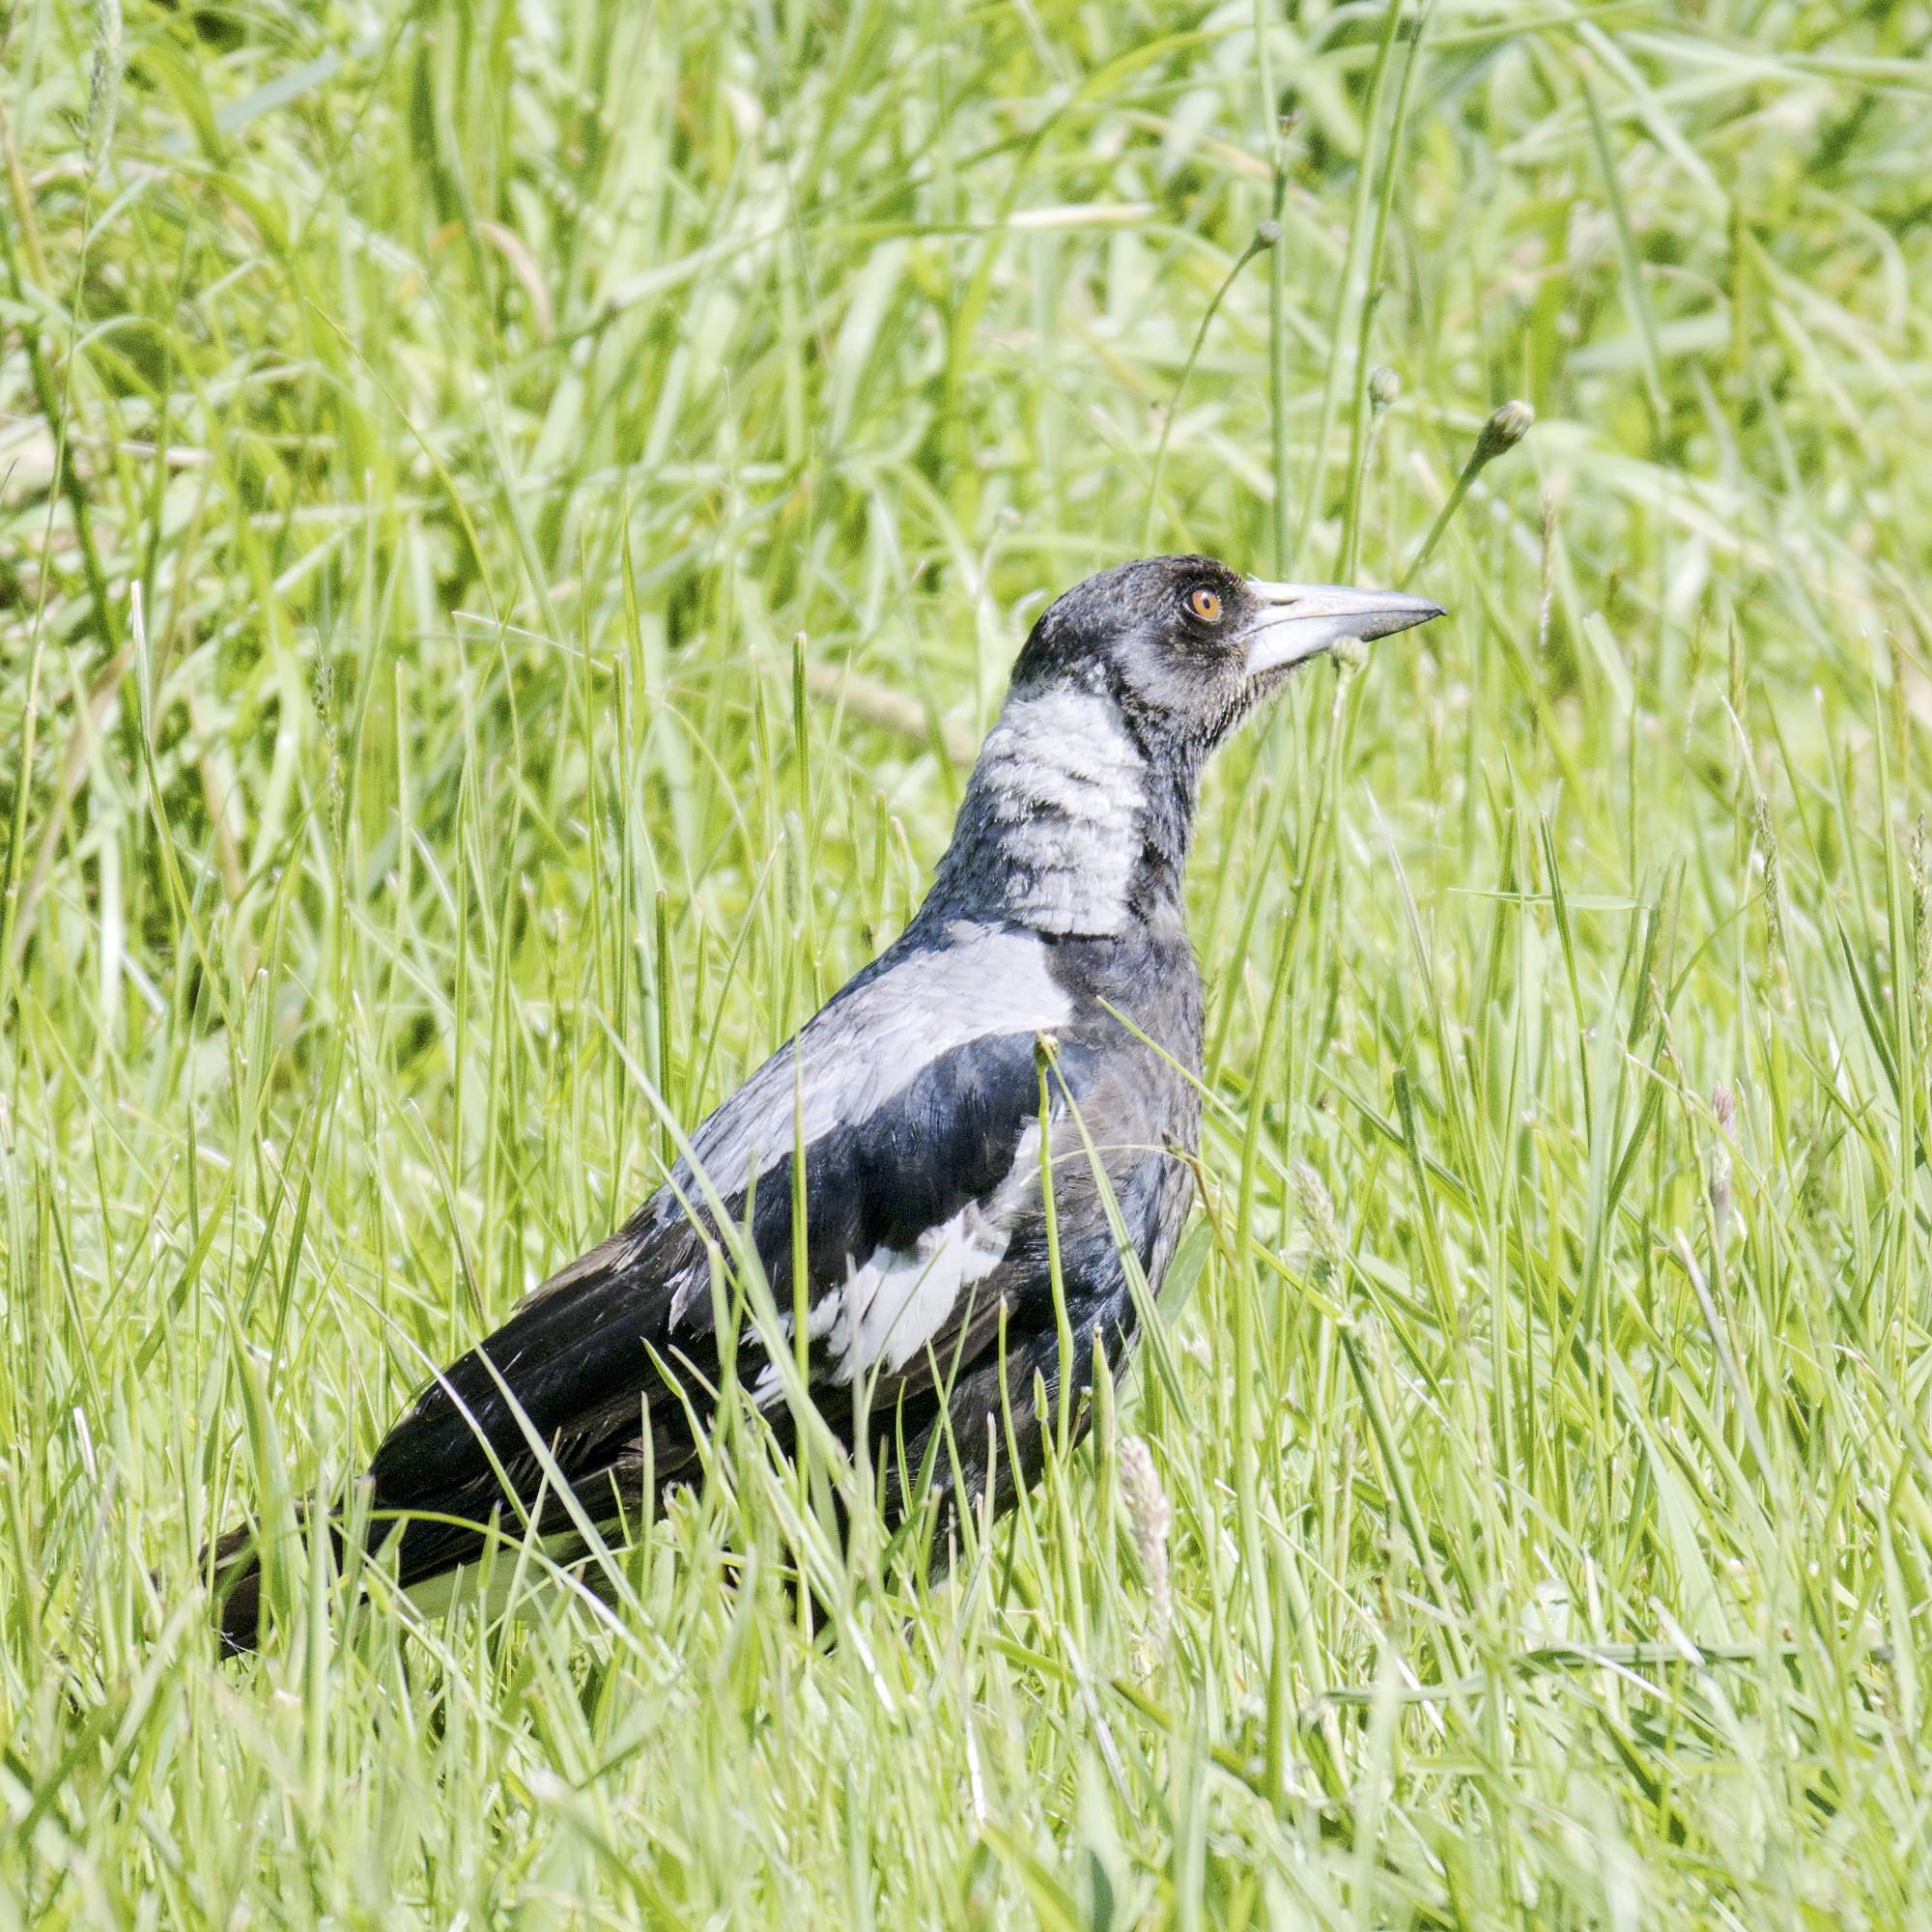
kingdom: Animalia
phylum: Chordata
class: Aves
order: Passeriformes
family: Cracticidae
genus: Gymnorhina
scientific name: Gymnorhina tibicen
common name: Australian magpie
